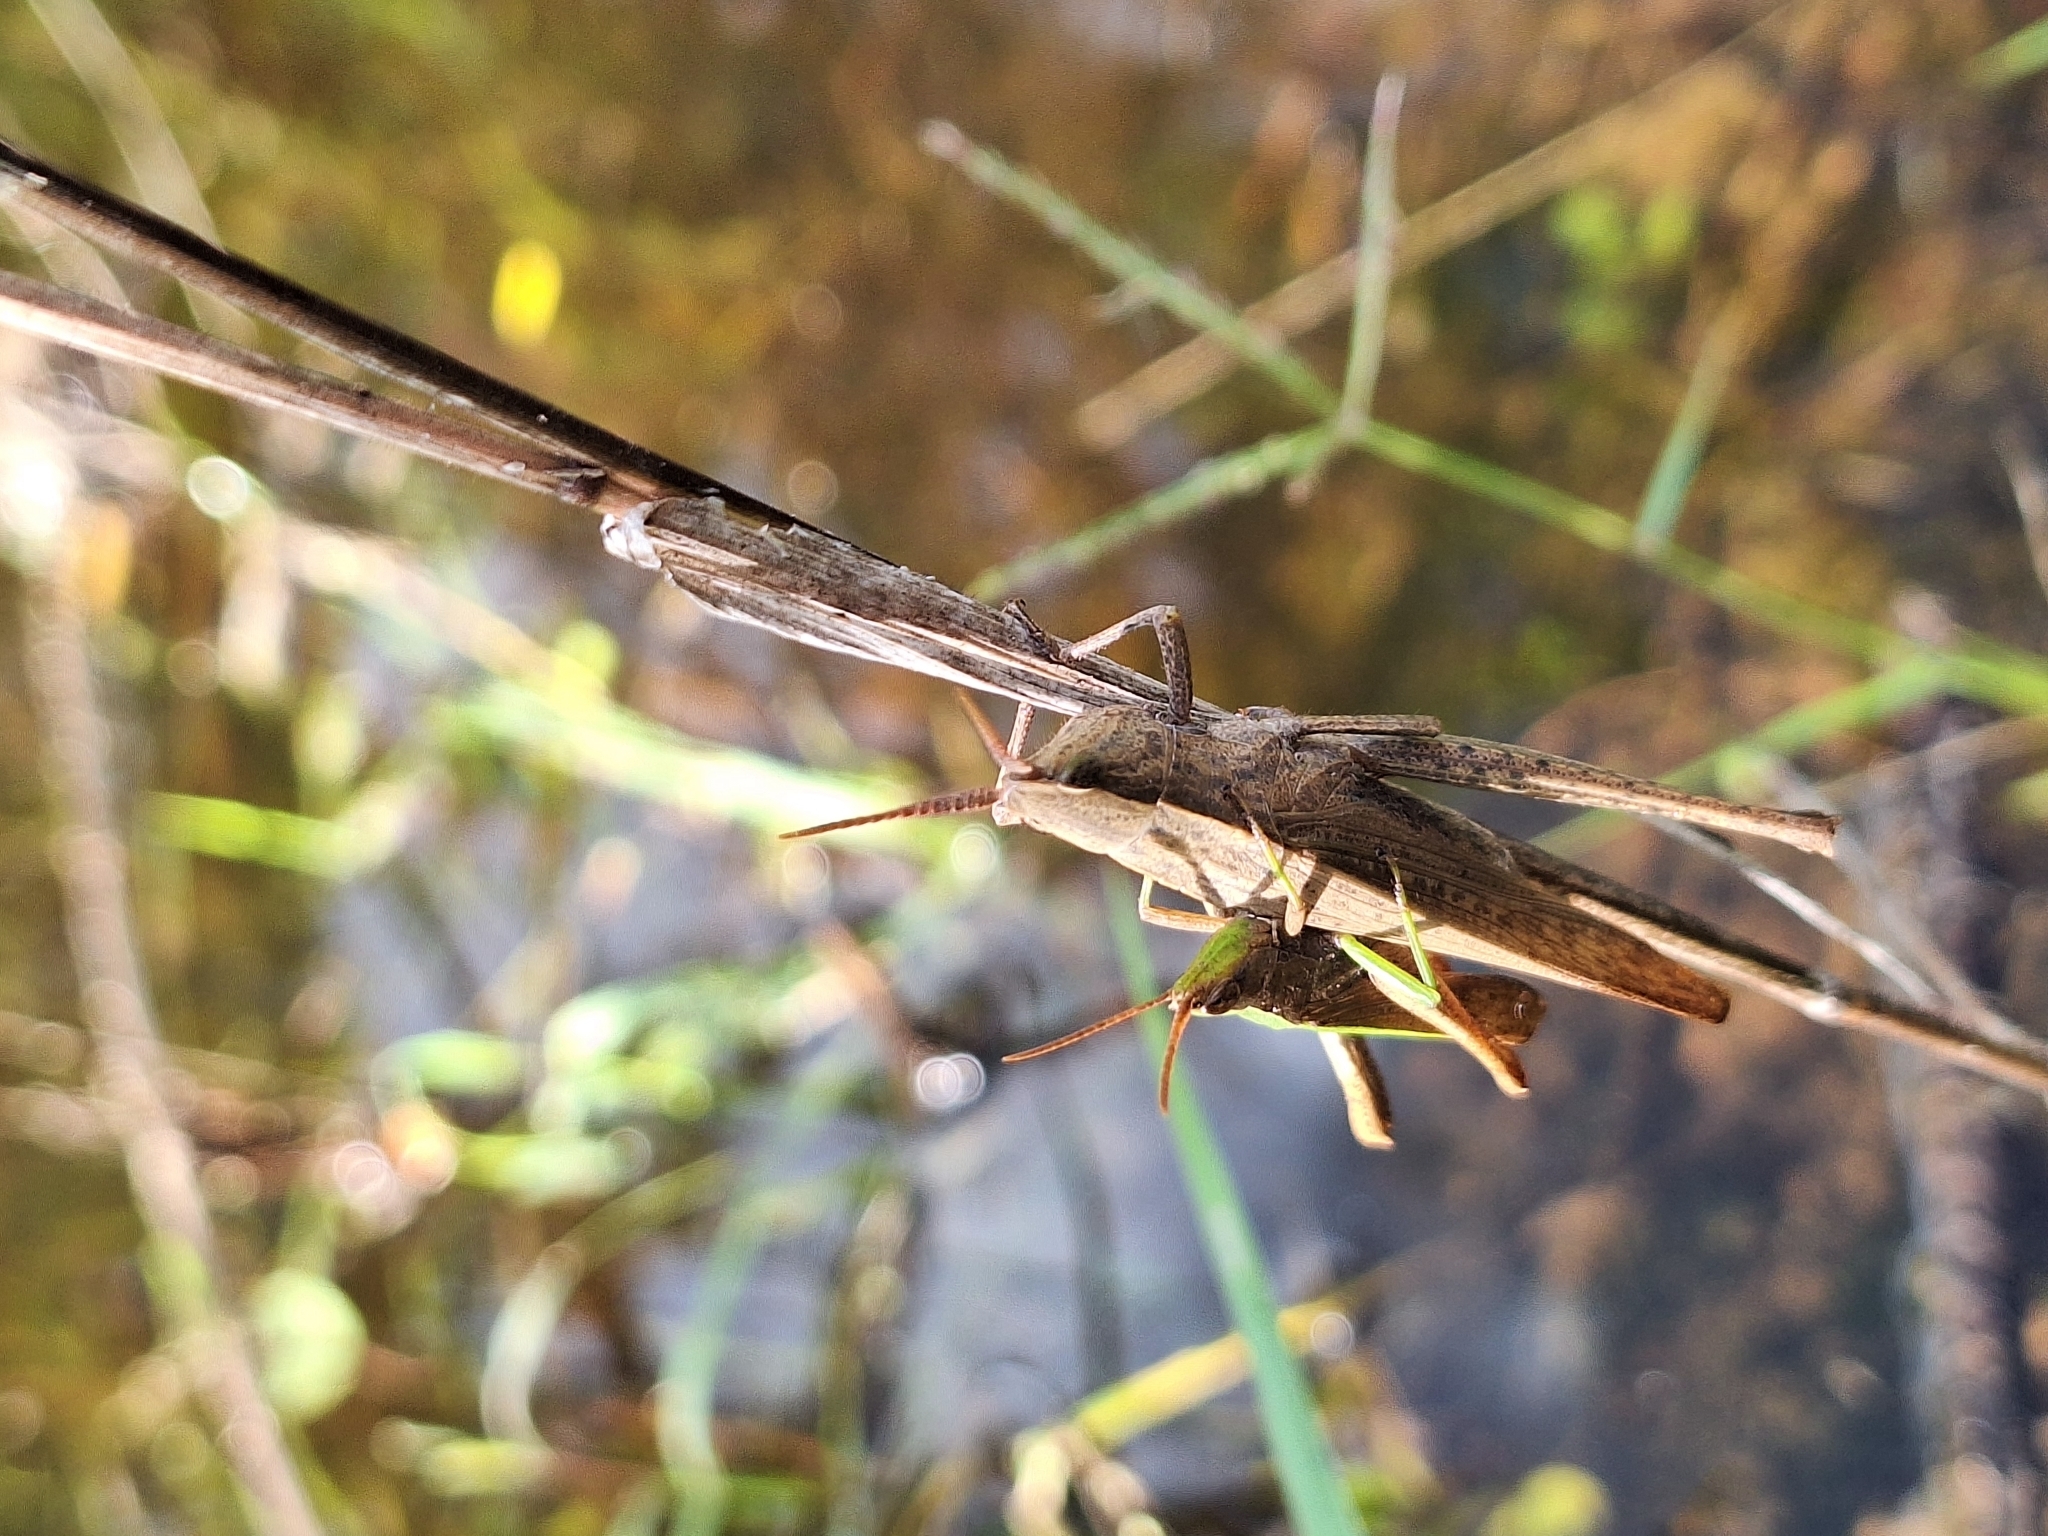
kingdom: Animalia
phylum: Arthropoda
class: Insecta
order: Orthoptera
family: Acrididae
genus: Metaleptea
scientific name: Metaleptea adspersa
